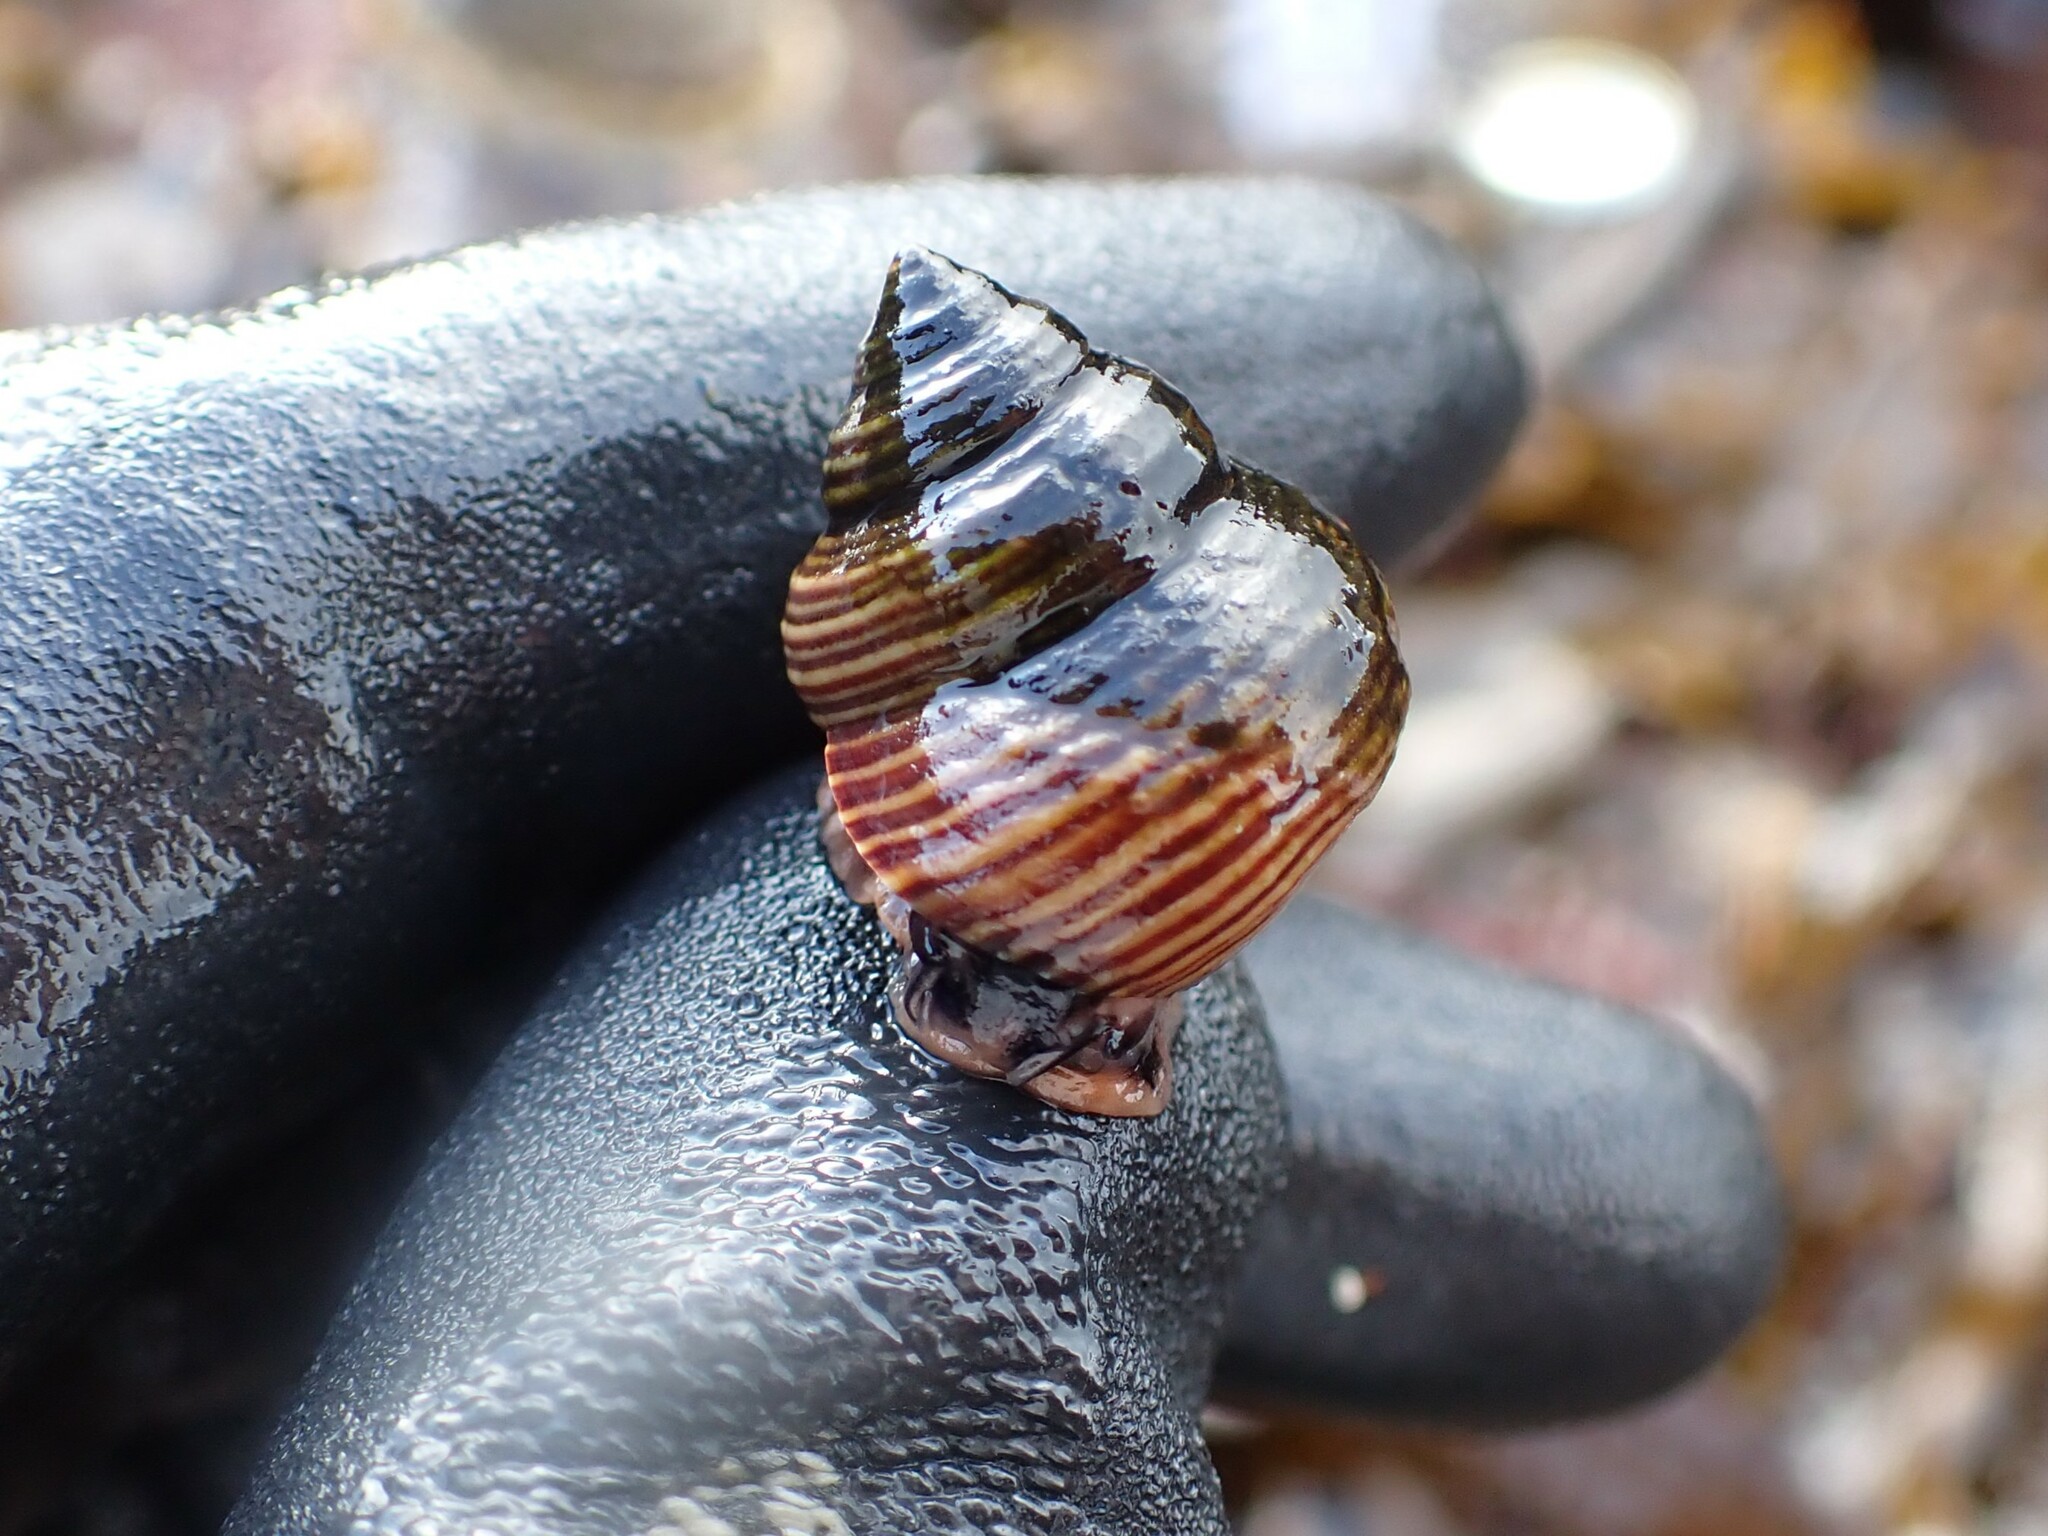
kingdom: Animalia
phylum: Mollusca
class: Gastropoda
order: Trochida
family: Calliostomatidae
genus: Calliostoma
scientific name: Calliostoma ligatum
